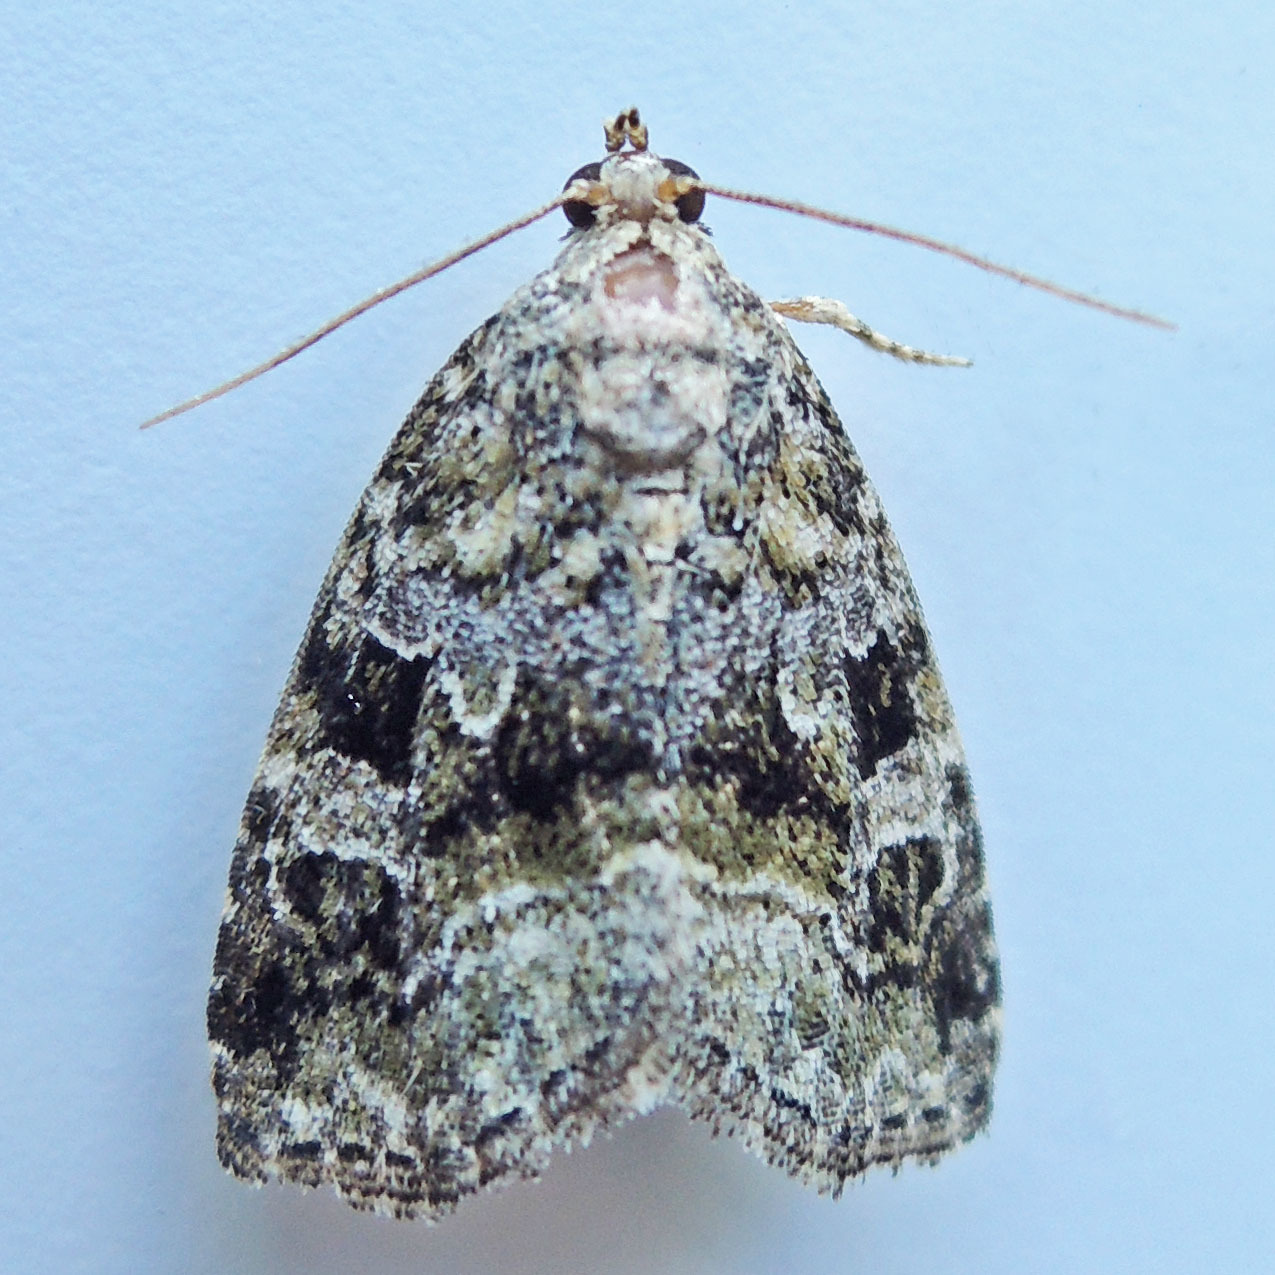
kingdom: Animalia
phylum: Arthropoda
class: Insecta
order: Lepidoptera
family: Noctuidae
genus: Protodeltote
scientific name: Protodeltote muscosula
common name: Large mossy glyph
